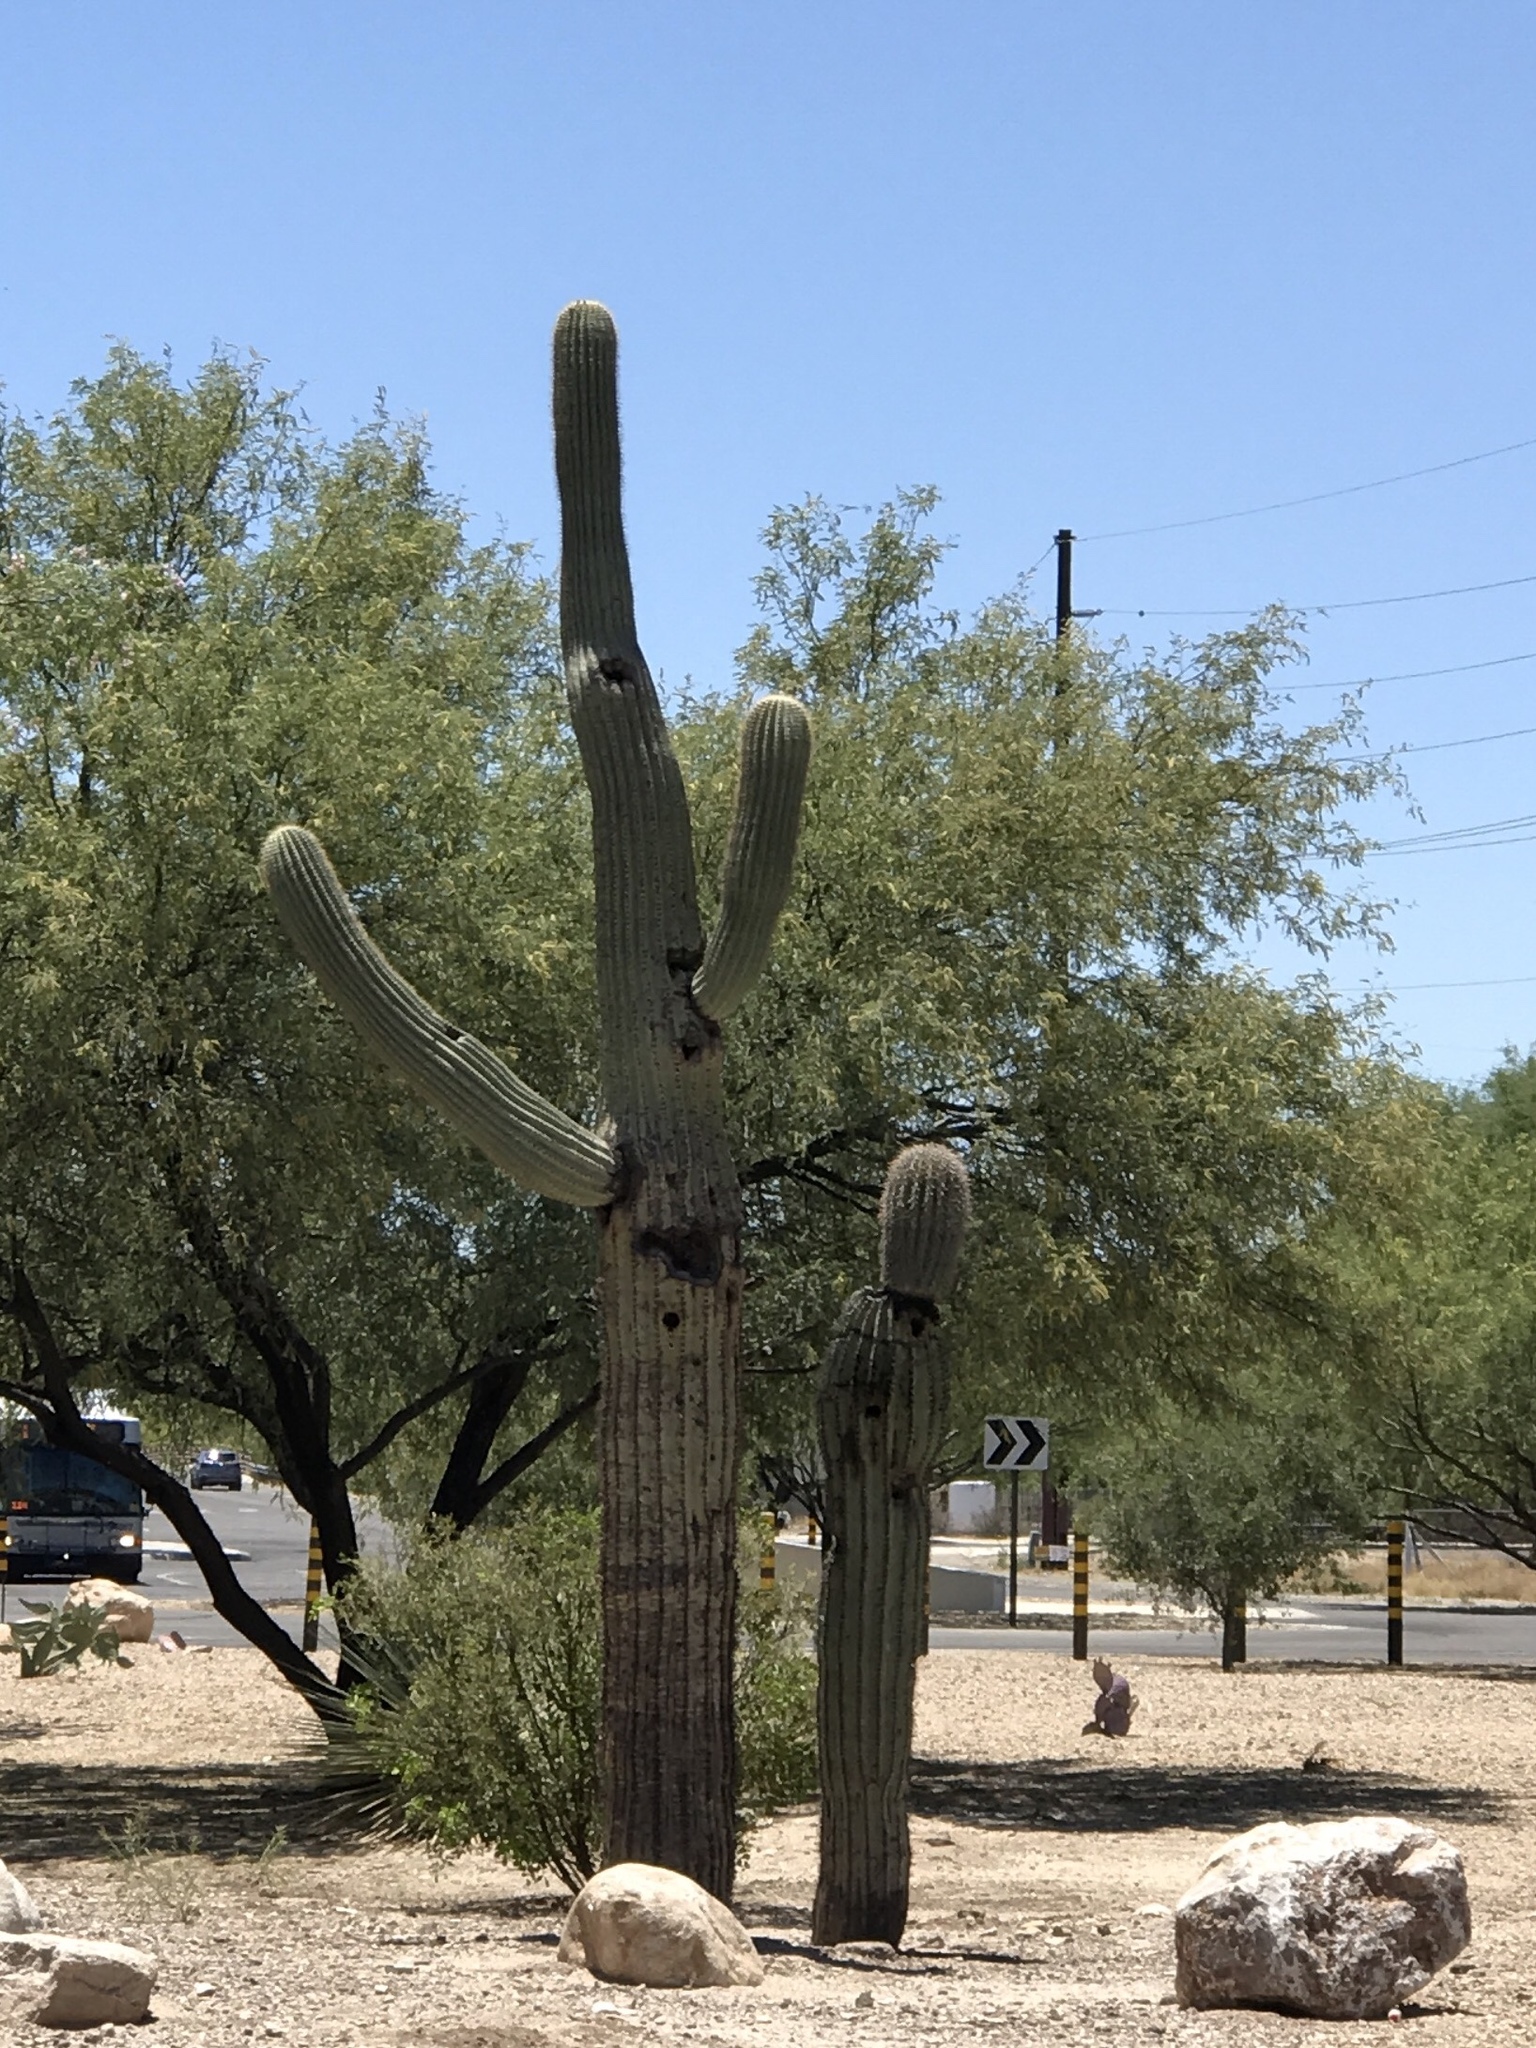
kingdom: Plantae
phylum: Tracheophyta
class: Magnoliopsida
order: Caryophyllales
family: Cactaceae
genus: Carnegiea
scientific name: Carnegiea gigantea
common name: Saguaro
